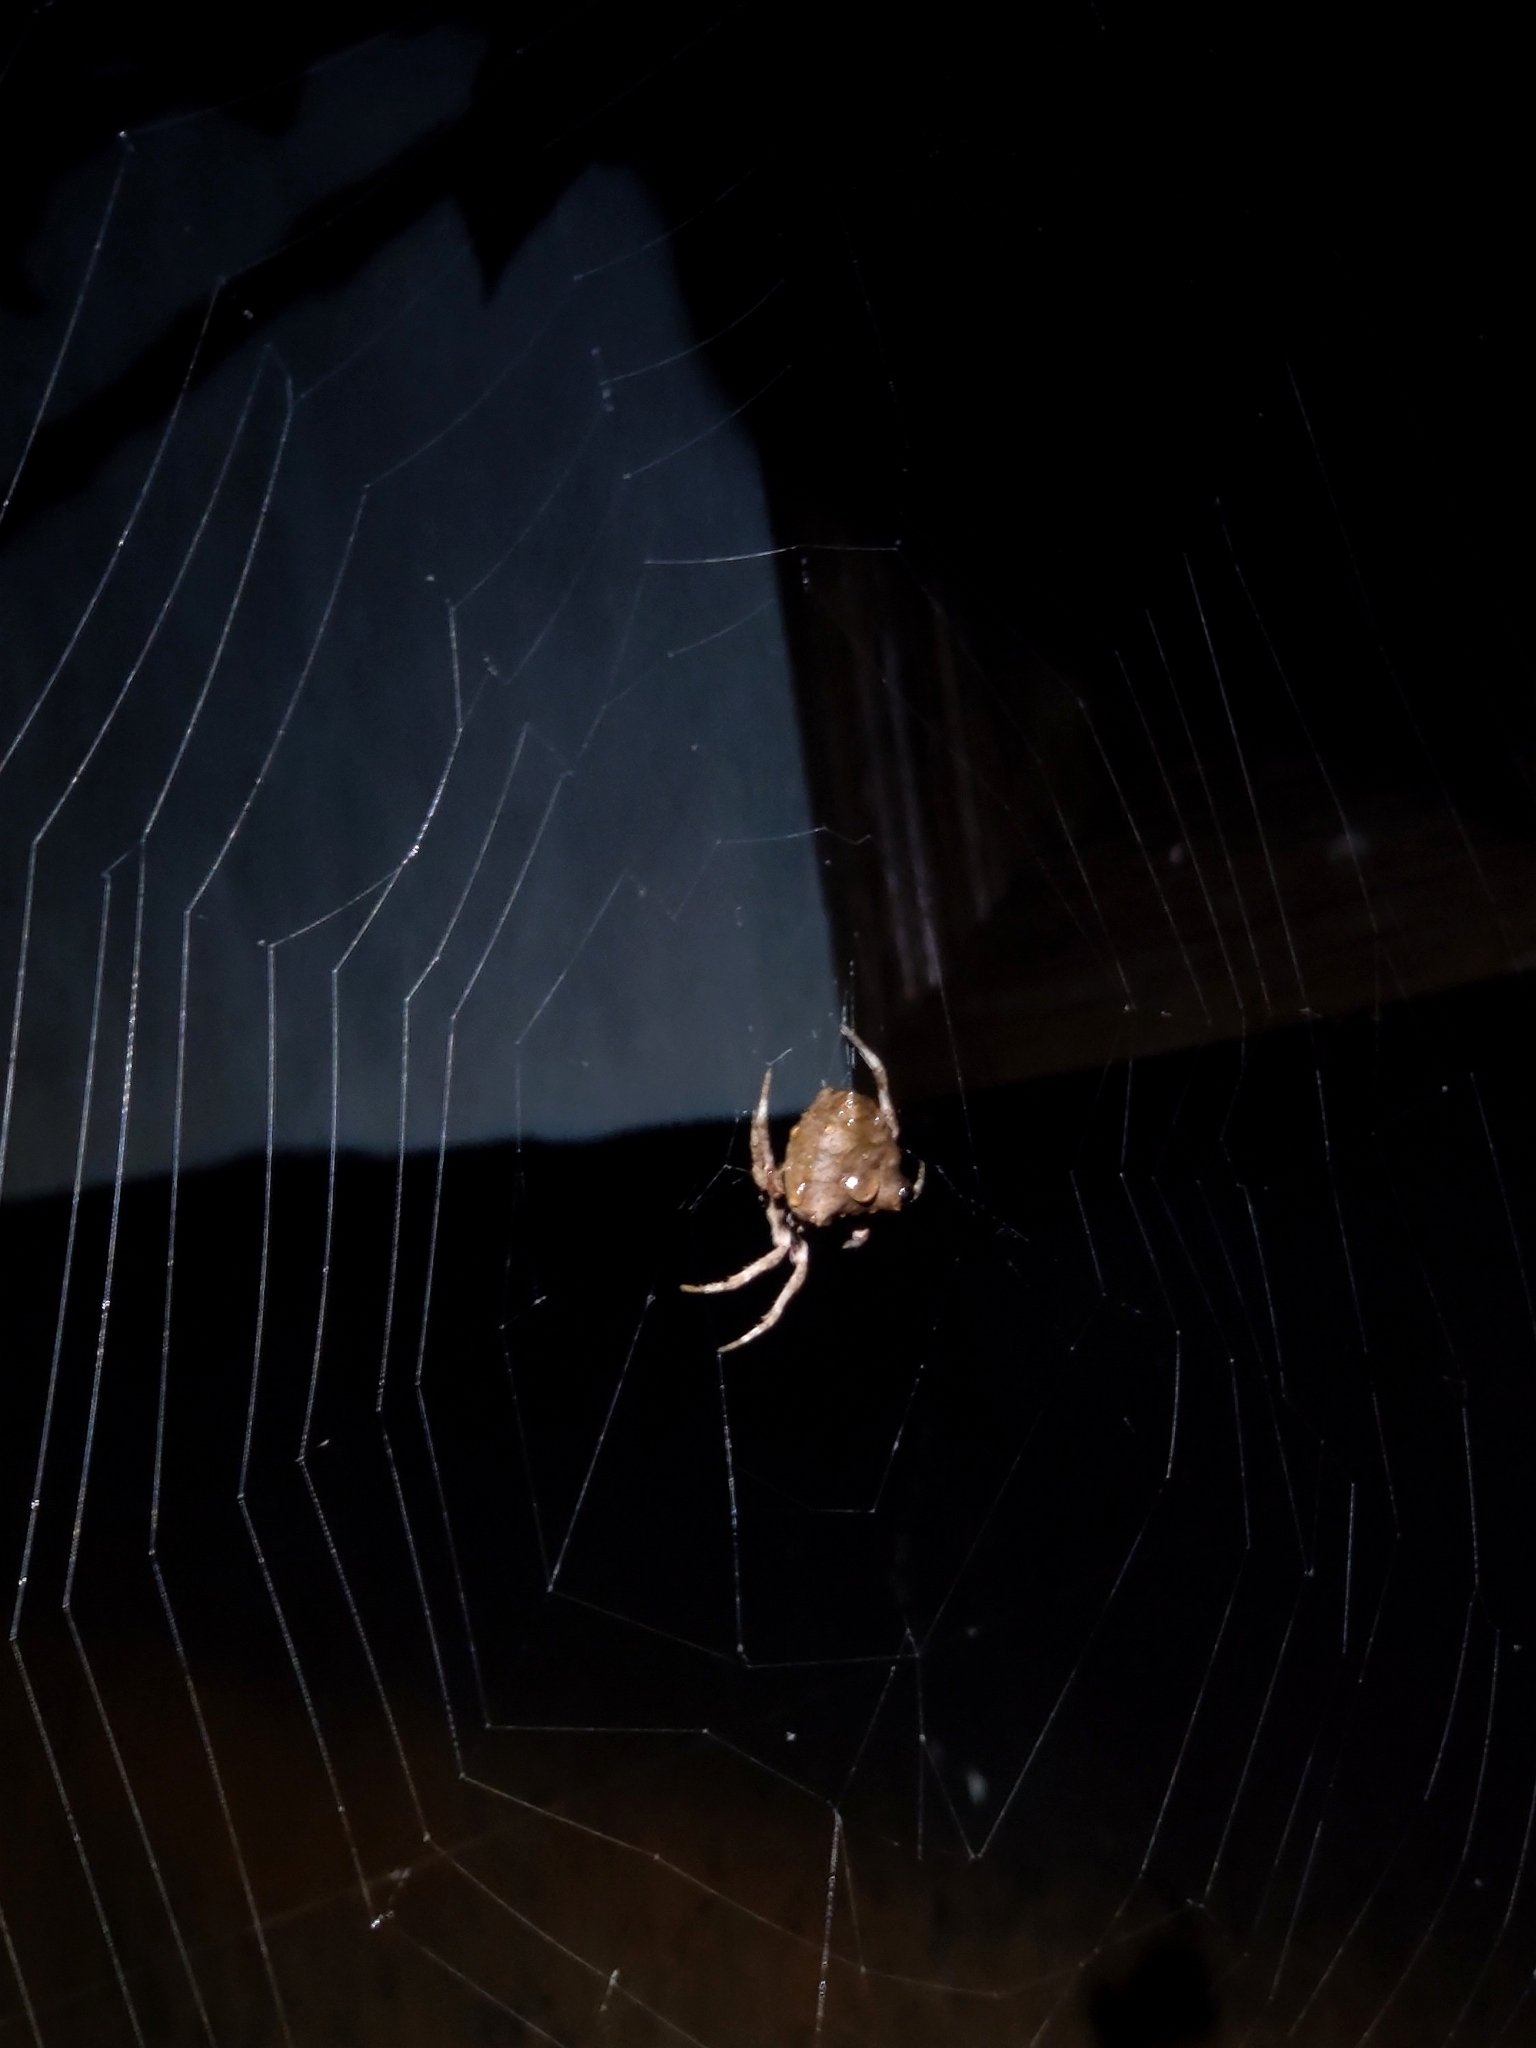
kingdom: Animalia
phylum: Arthropoda
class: Arachnida
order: Araneae
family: Araneidae
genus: Parawixia
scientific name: Parawixia dehaani
